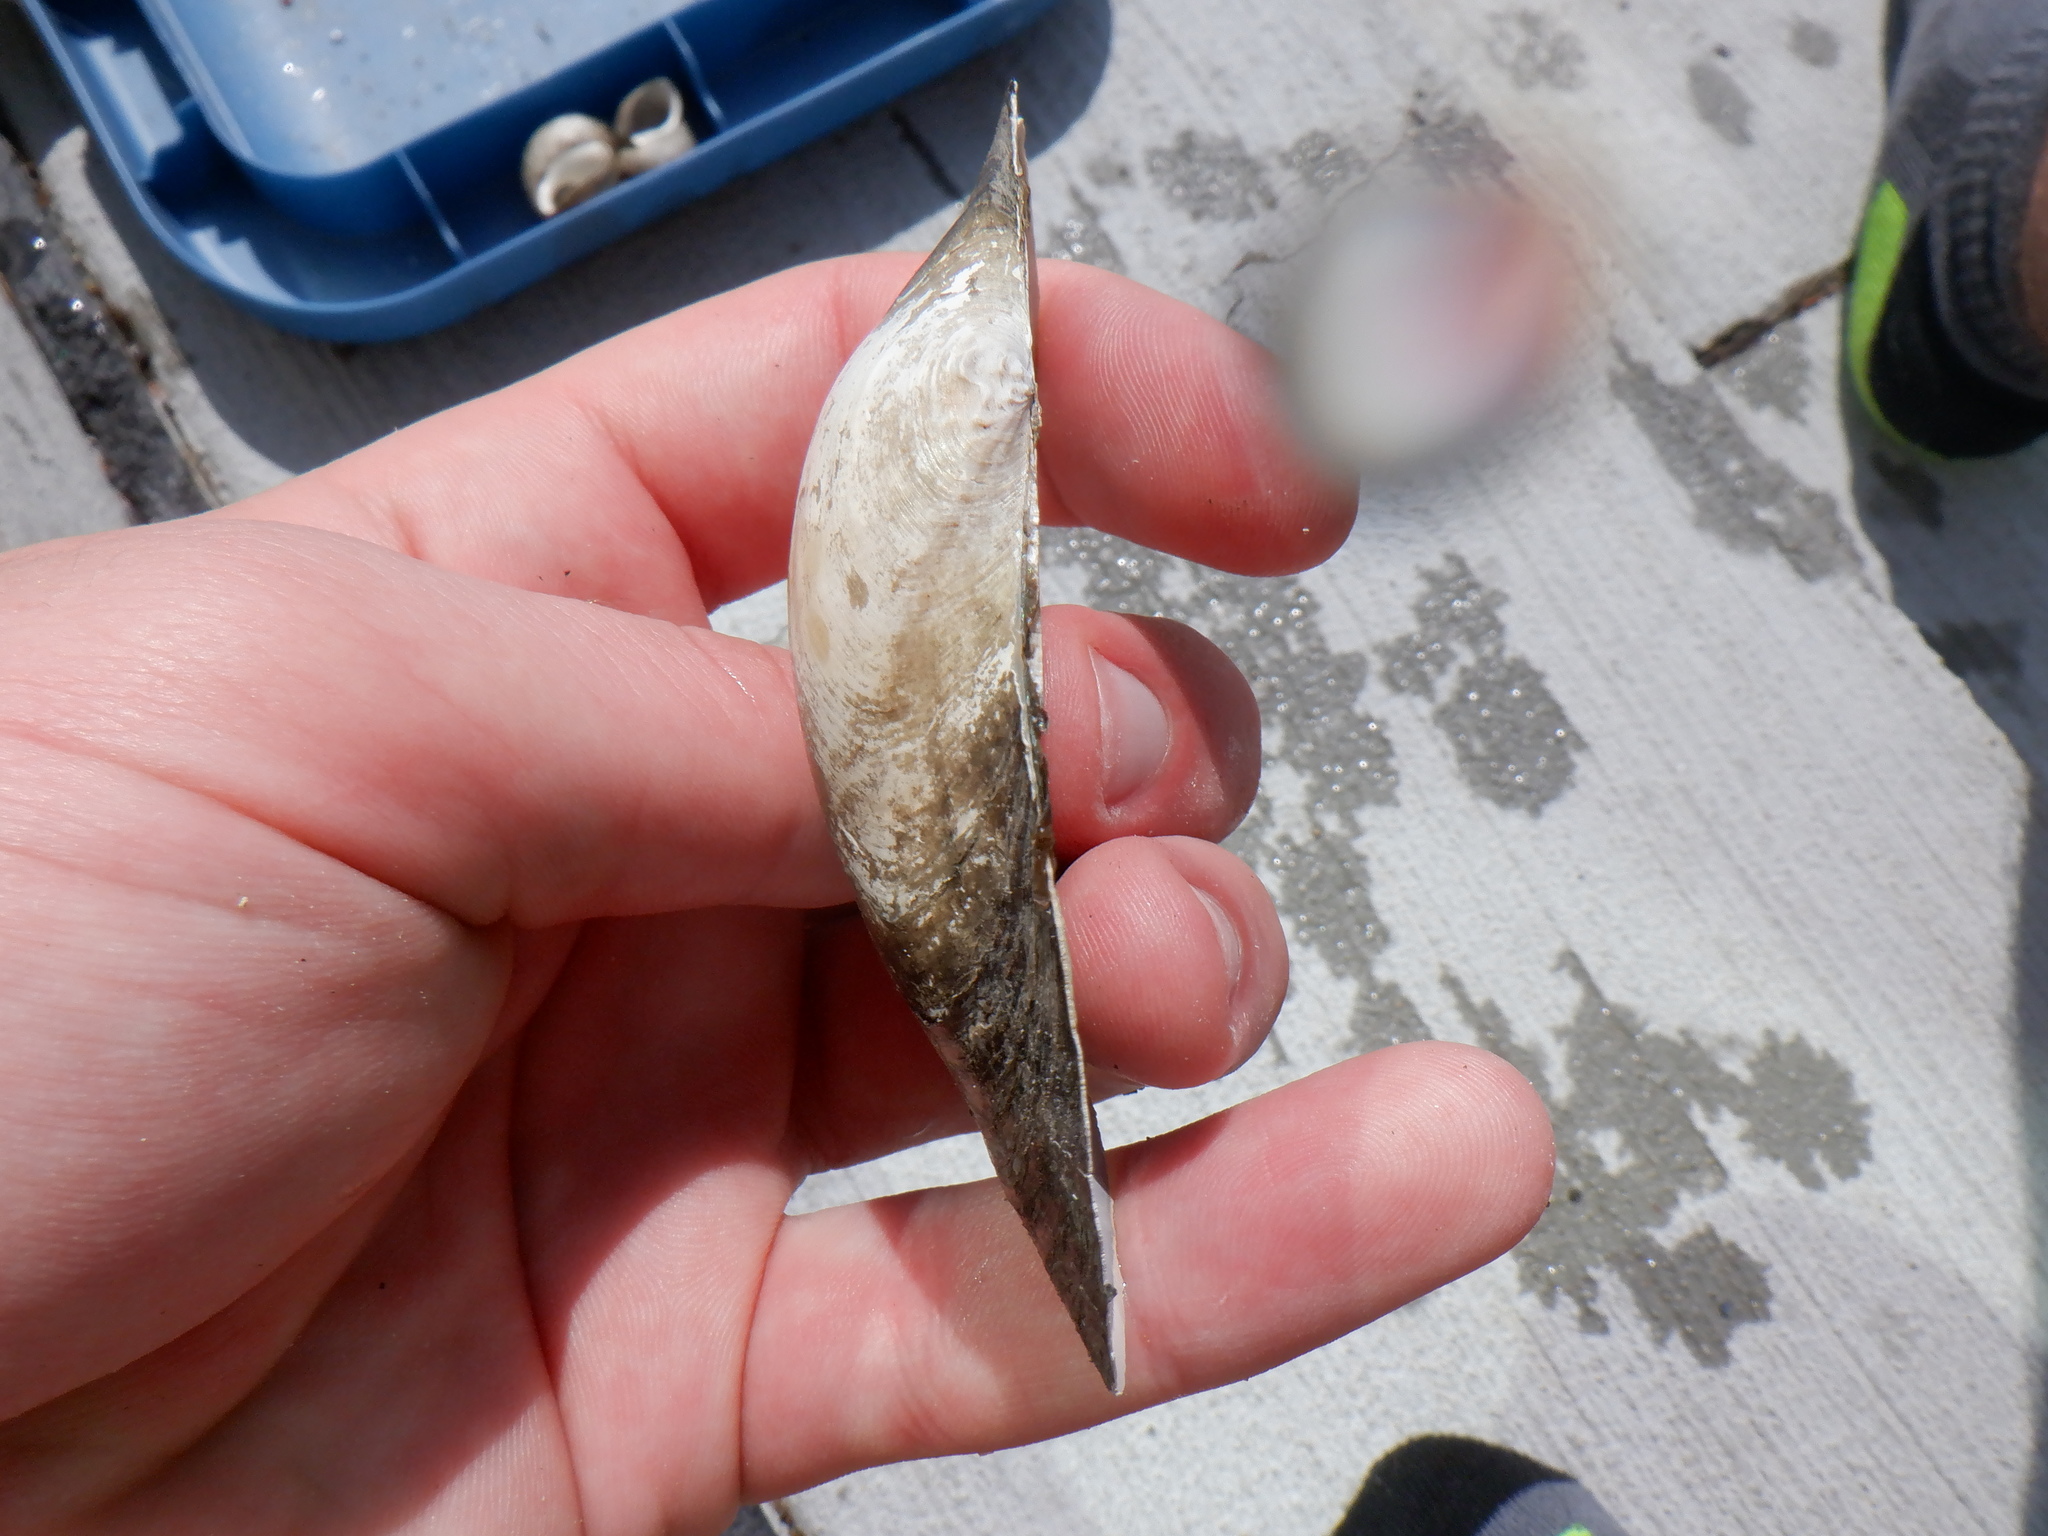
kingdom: Animalia
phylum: Mollusca
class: Bivalvia
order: Unionida
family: Unionidae
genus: Pyganodon
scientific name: Pyganodon grandis
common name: Giant floater
